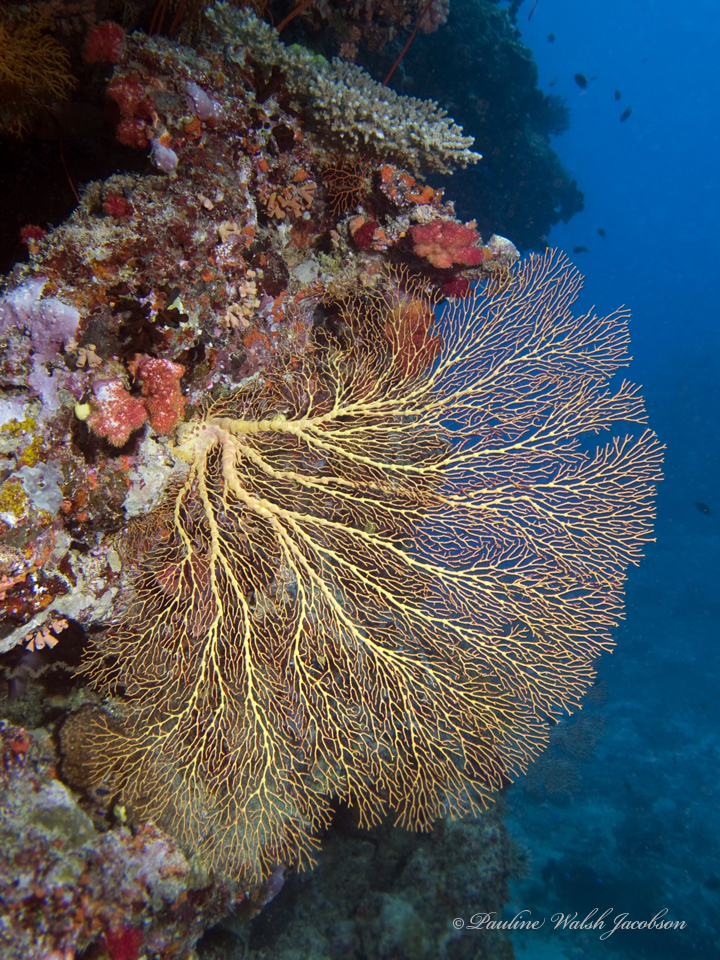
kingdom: Animalia
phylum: Cnidaria
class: Anthozoa
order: Malacalcyonacea
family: Melithaeidae
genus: Melithaea
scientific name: Melithaea ochracea
